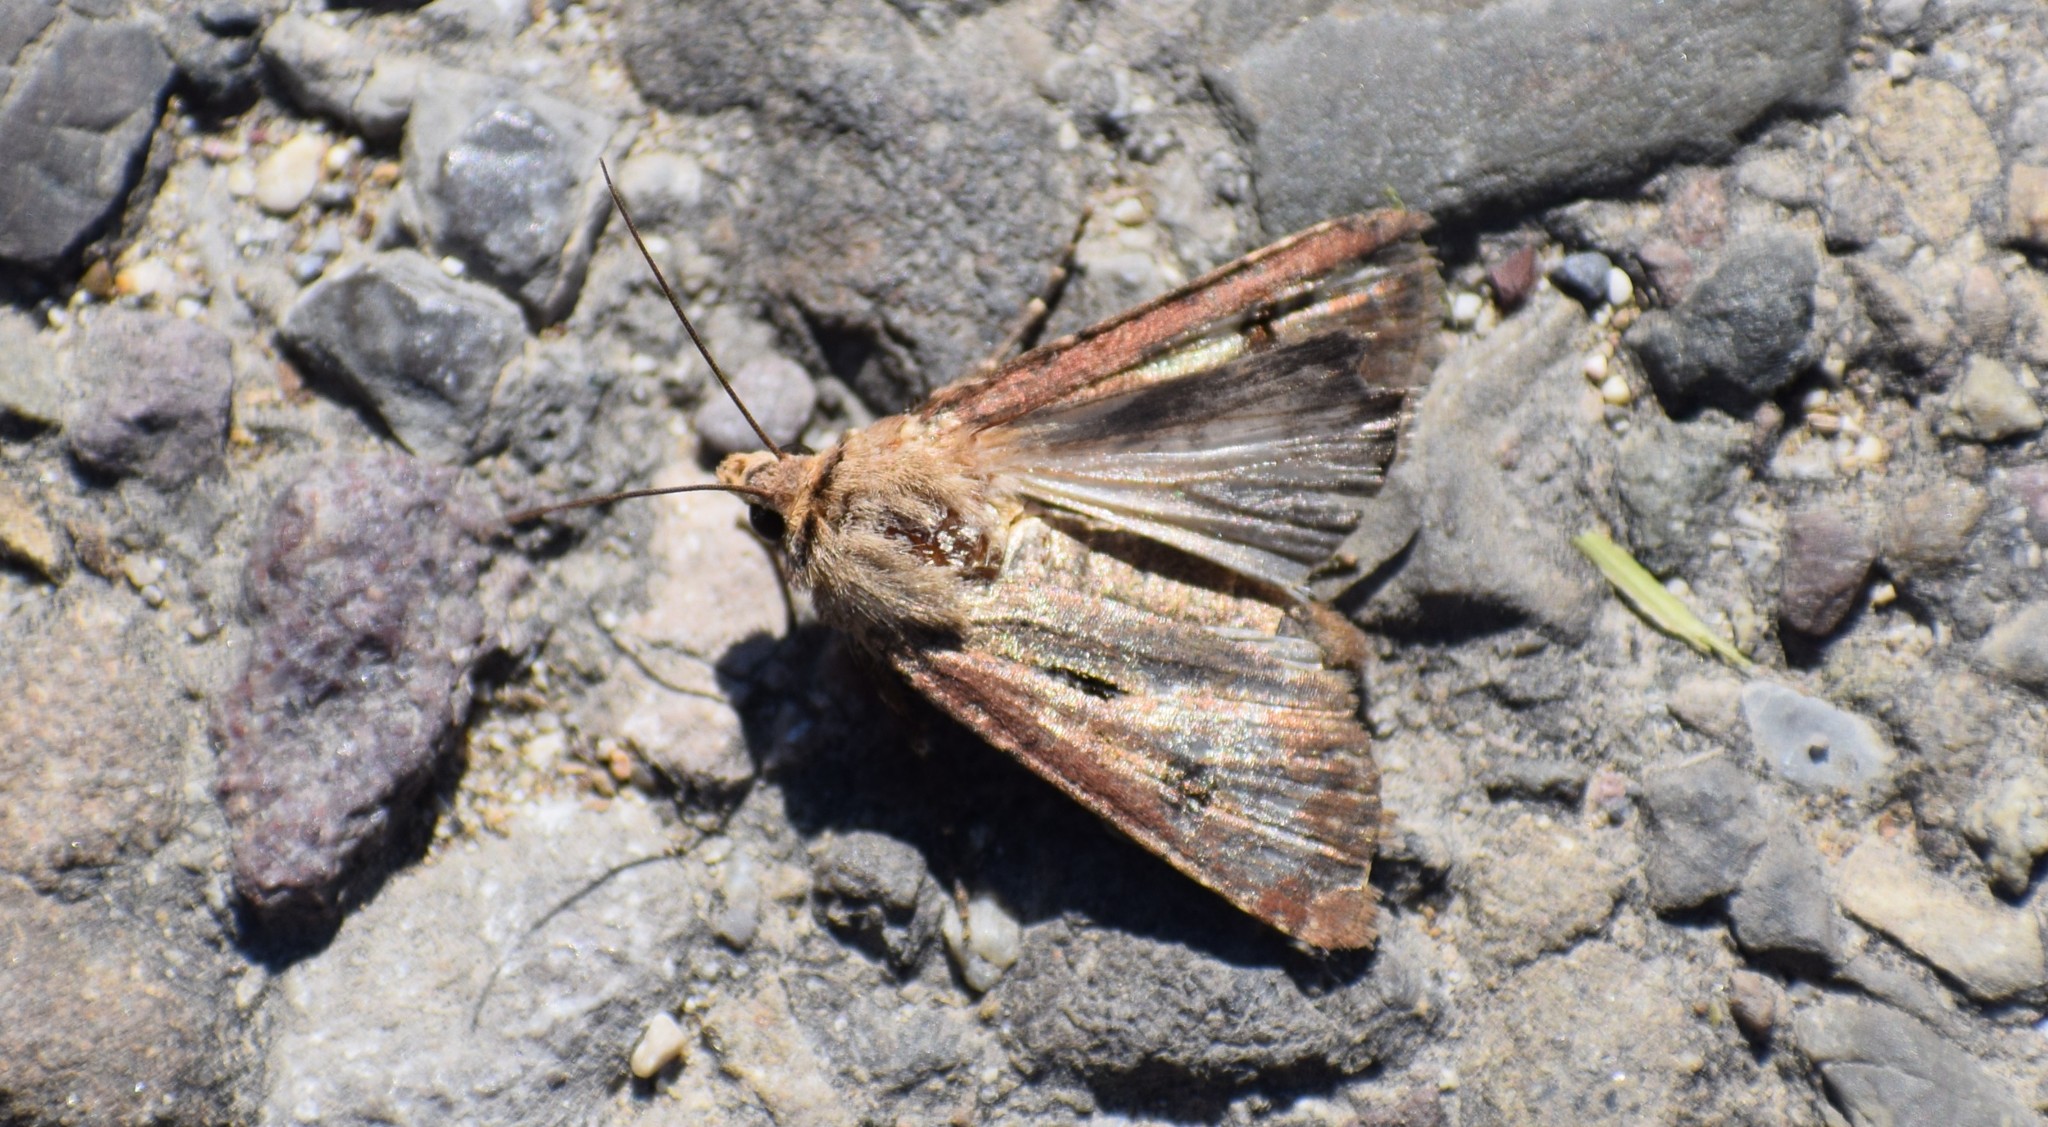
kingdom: Animalia
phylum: Arthropoda
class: Insecta
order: Lepidoptera
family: Noctuidae
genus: Agrotis
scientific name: Agrotis exclamationis
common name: Heart and dart
